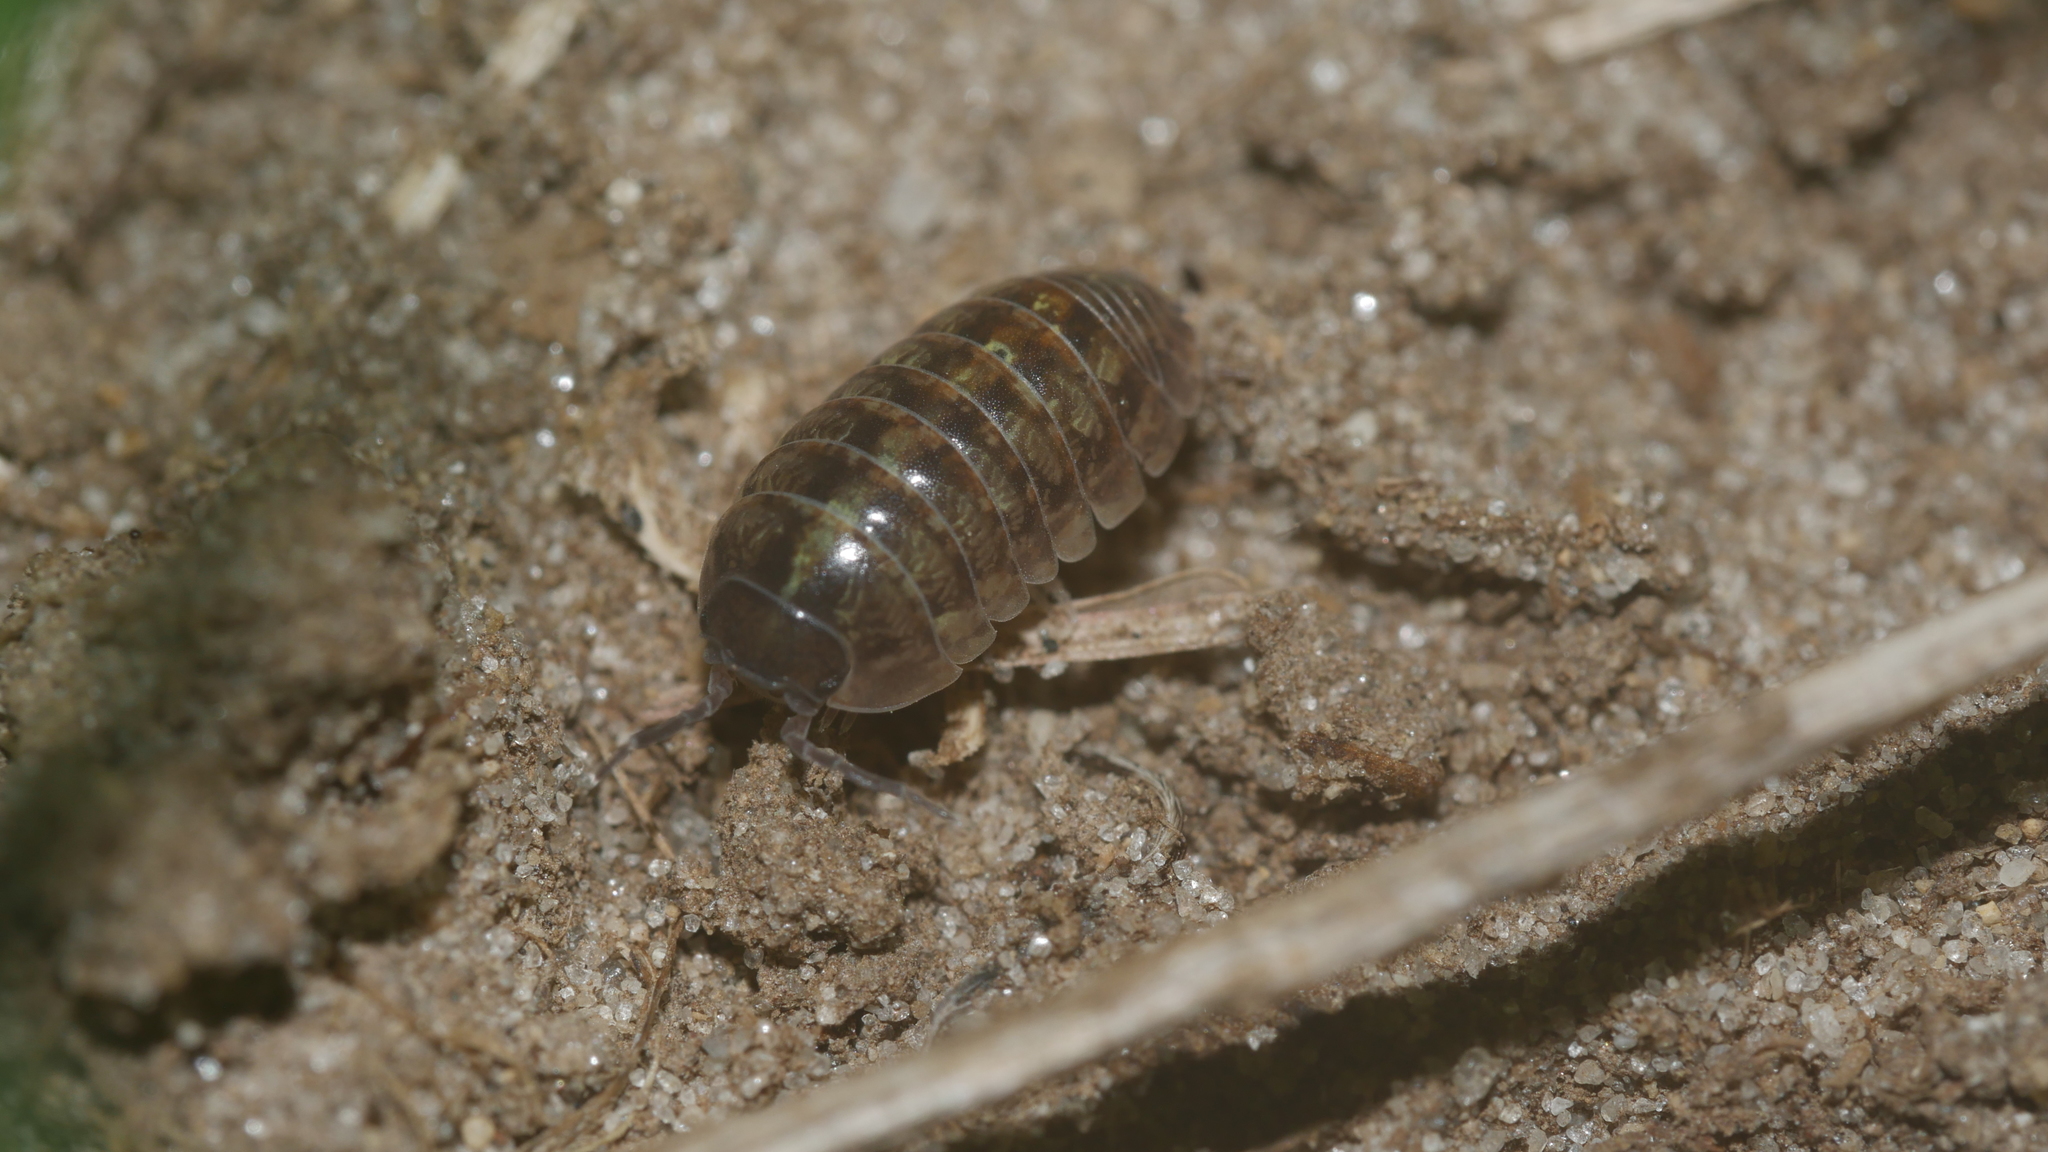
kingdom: Animalia
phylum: Arthropoda
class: Malacostraca
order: Isopoda
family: Armadillidiidae
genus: Armadillidium
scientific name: Armadillidium vulgare
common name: Common pill woodlouse
